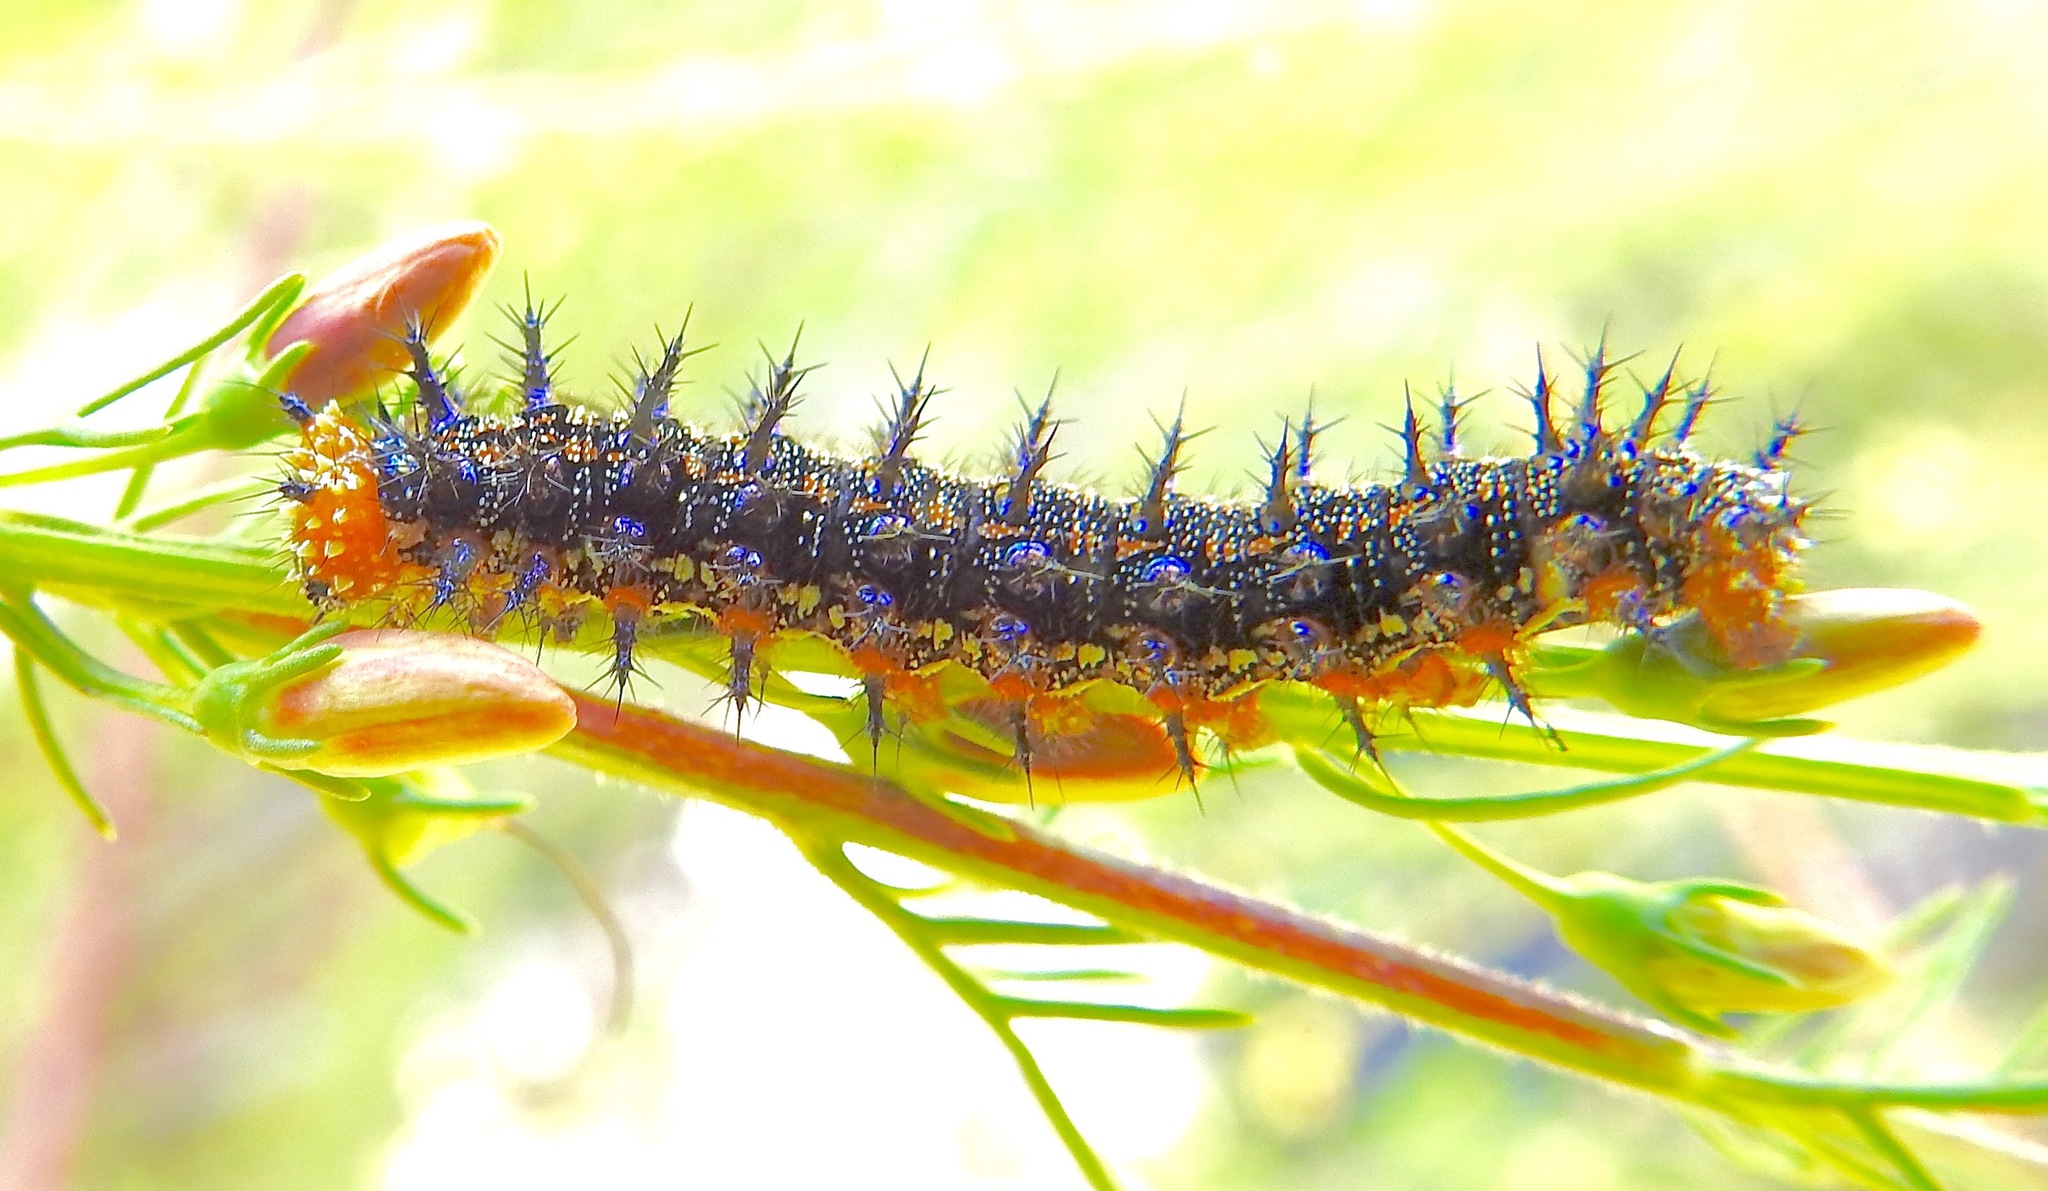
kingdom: Animalia
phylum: Arthropoda
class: Insecta
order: Lepidoptera
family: Nymphalidae
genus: Junonia
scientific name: Junonia coenia
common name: Common buckeye
